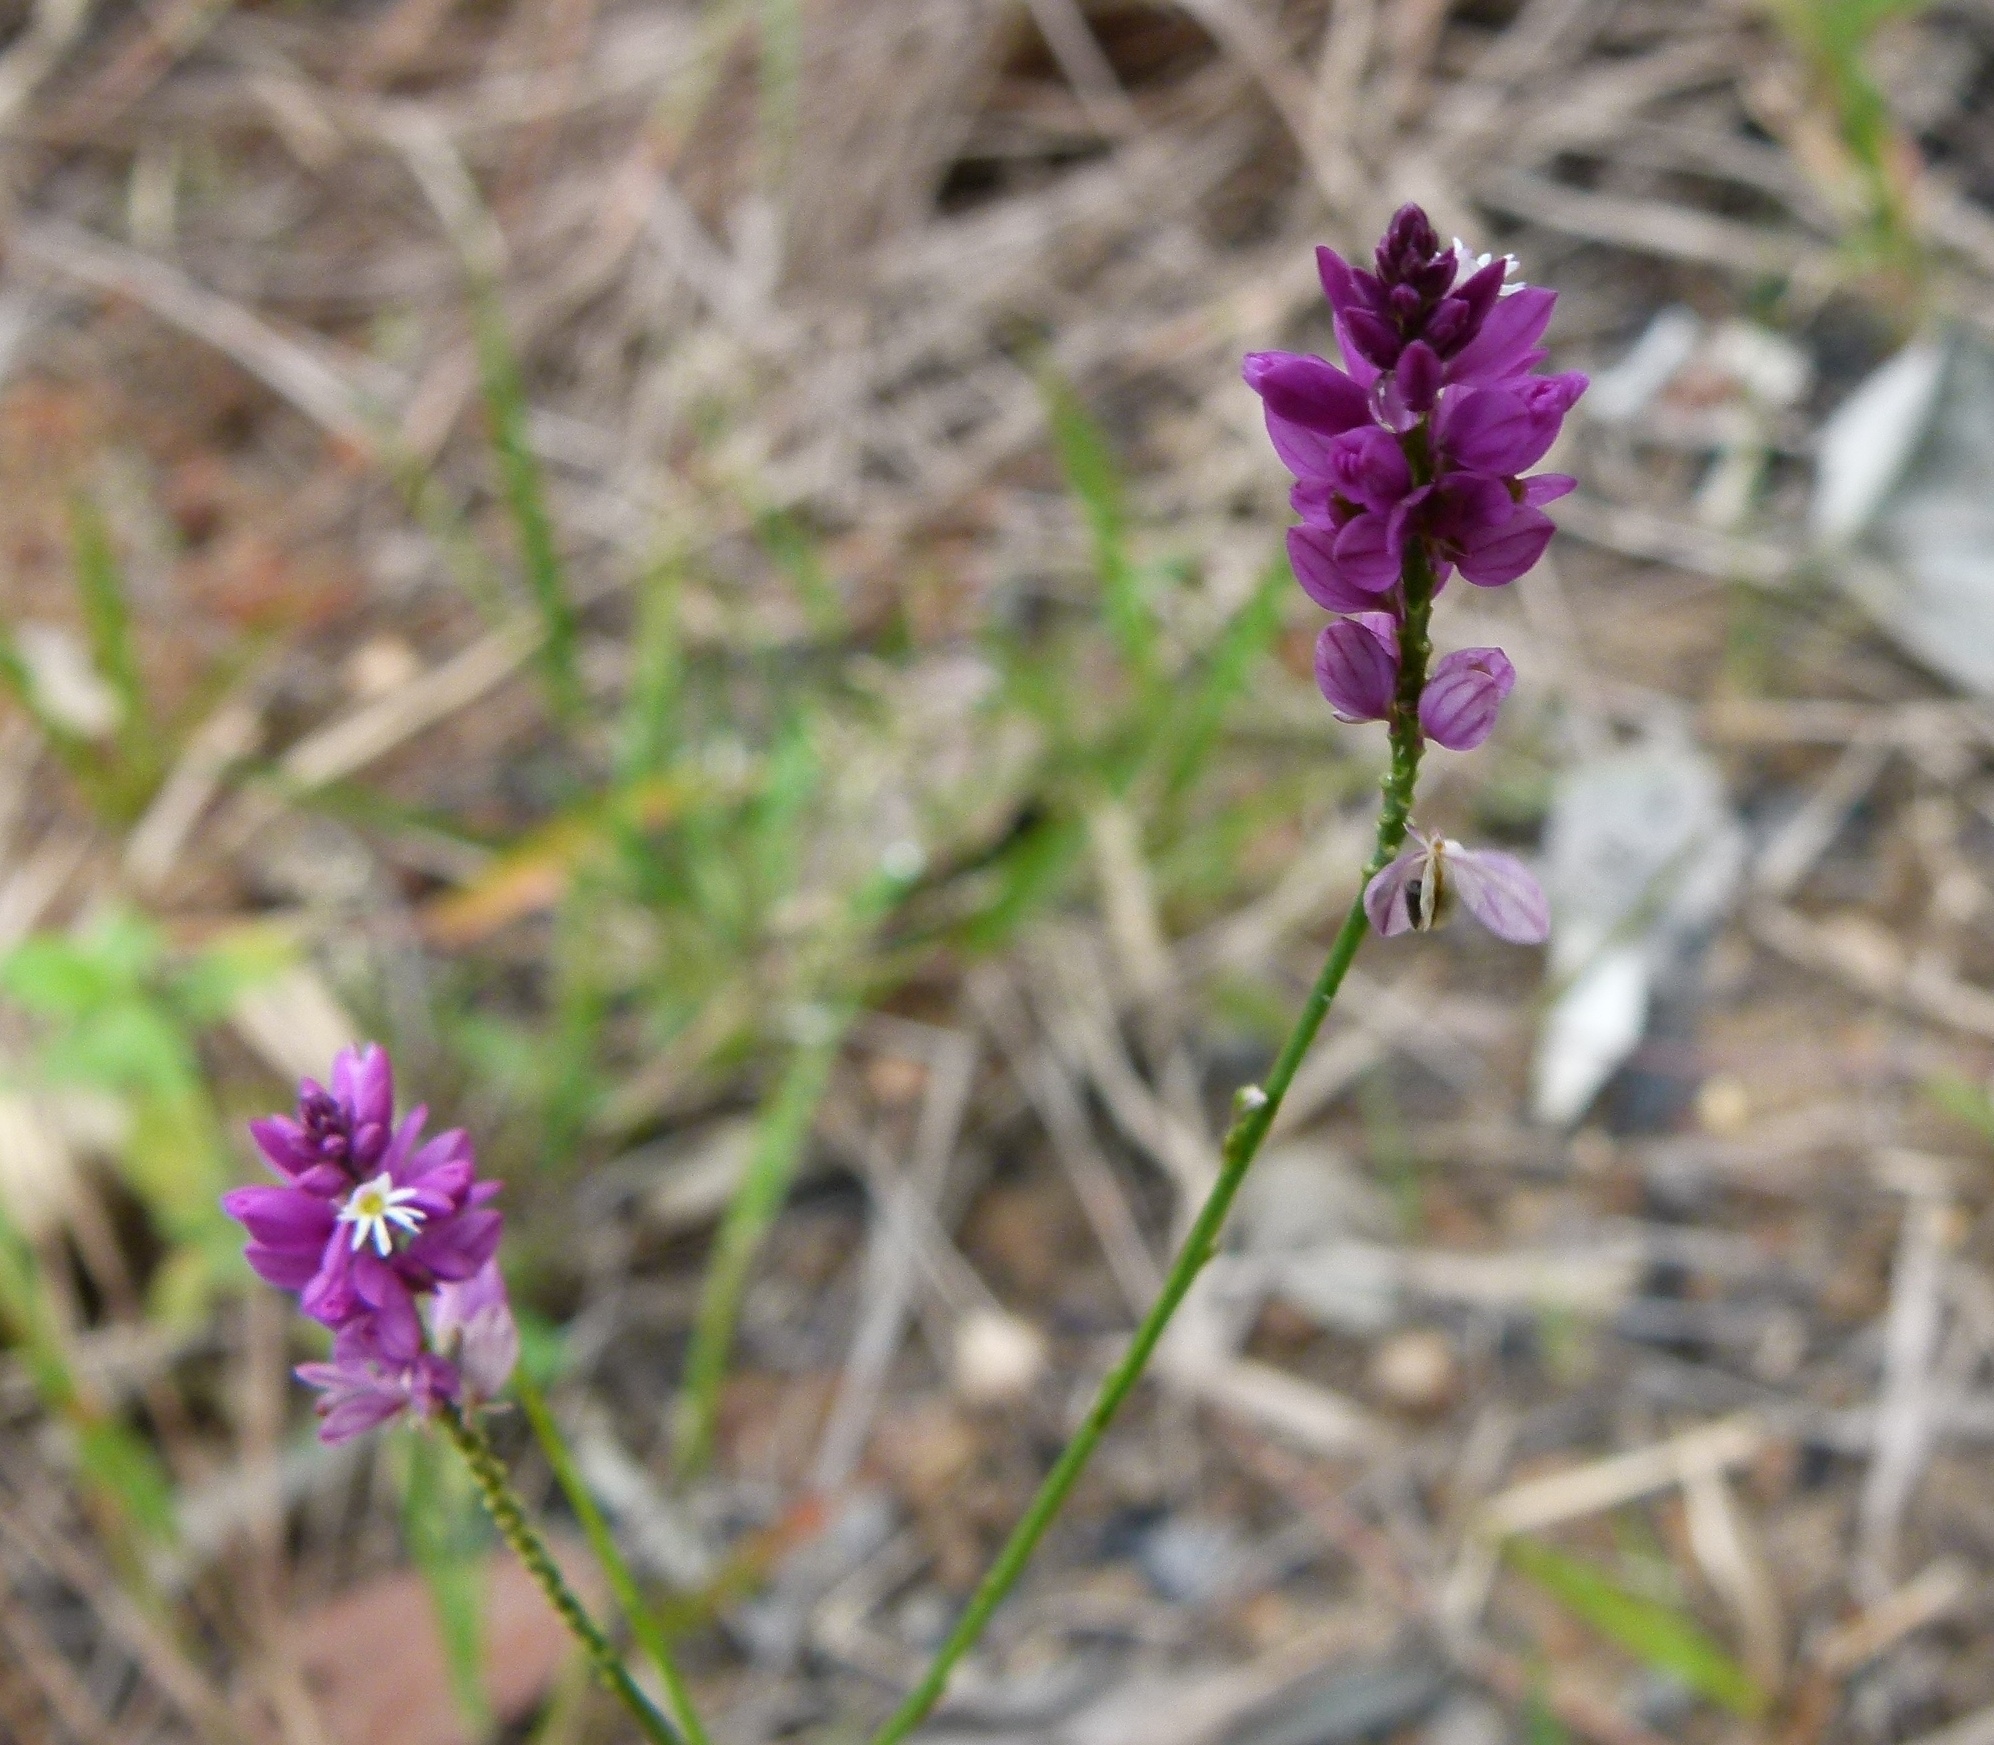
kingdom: Plantae
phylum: Tracheophyta
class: Magnoliopsida
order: Fabales
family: Polygalaceae
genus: Polygala
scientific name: Polygala trichosperma
